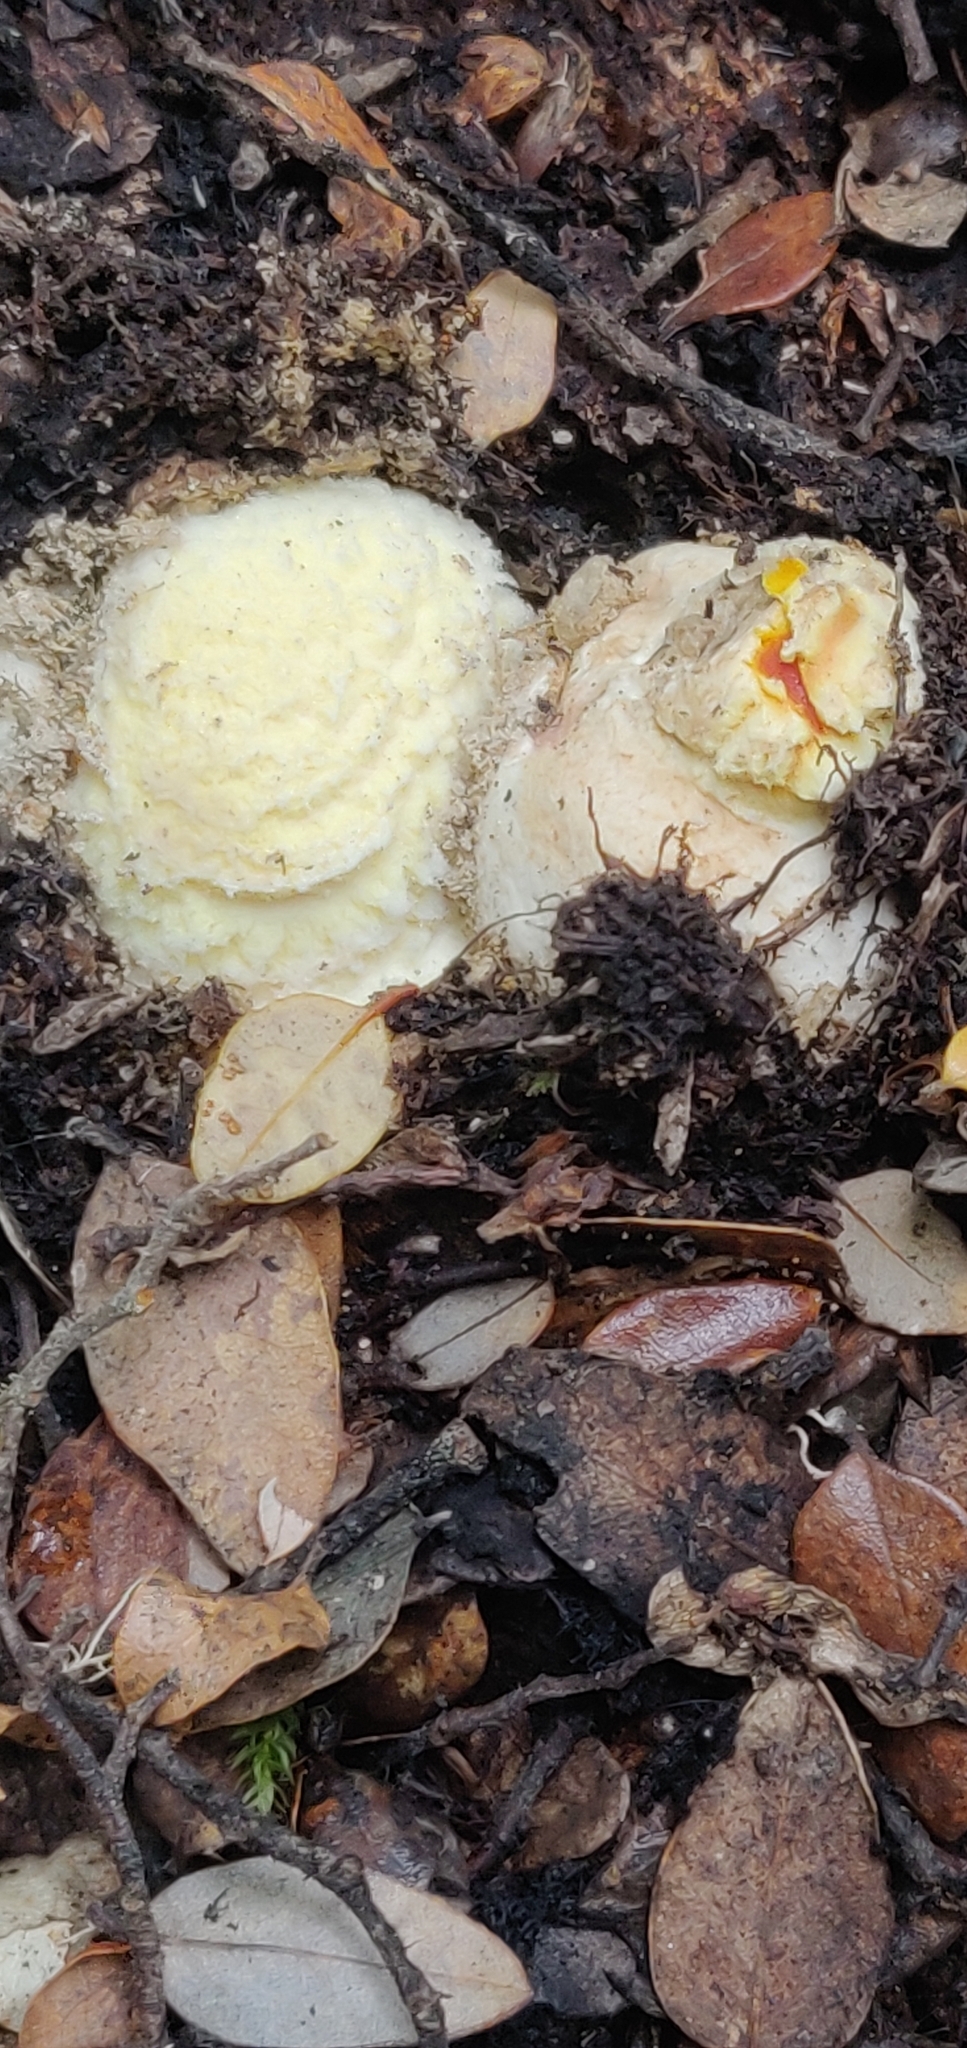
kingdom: Fungi
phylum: Basidiomycota
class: Agaricomycetes
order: Agaricales
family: Amanitaceae
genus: Amanita
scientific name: Amanita muscaria
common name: Fly agaric
